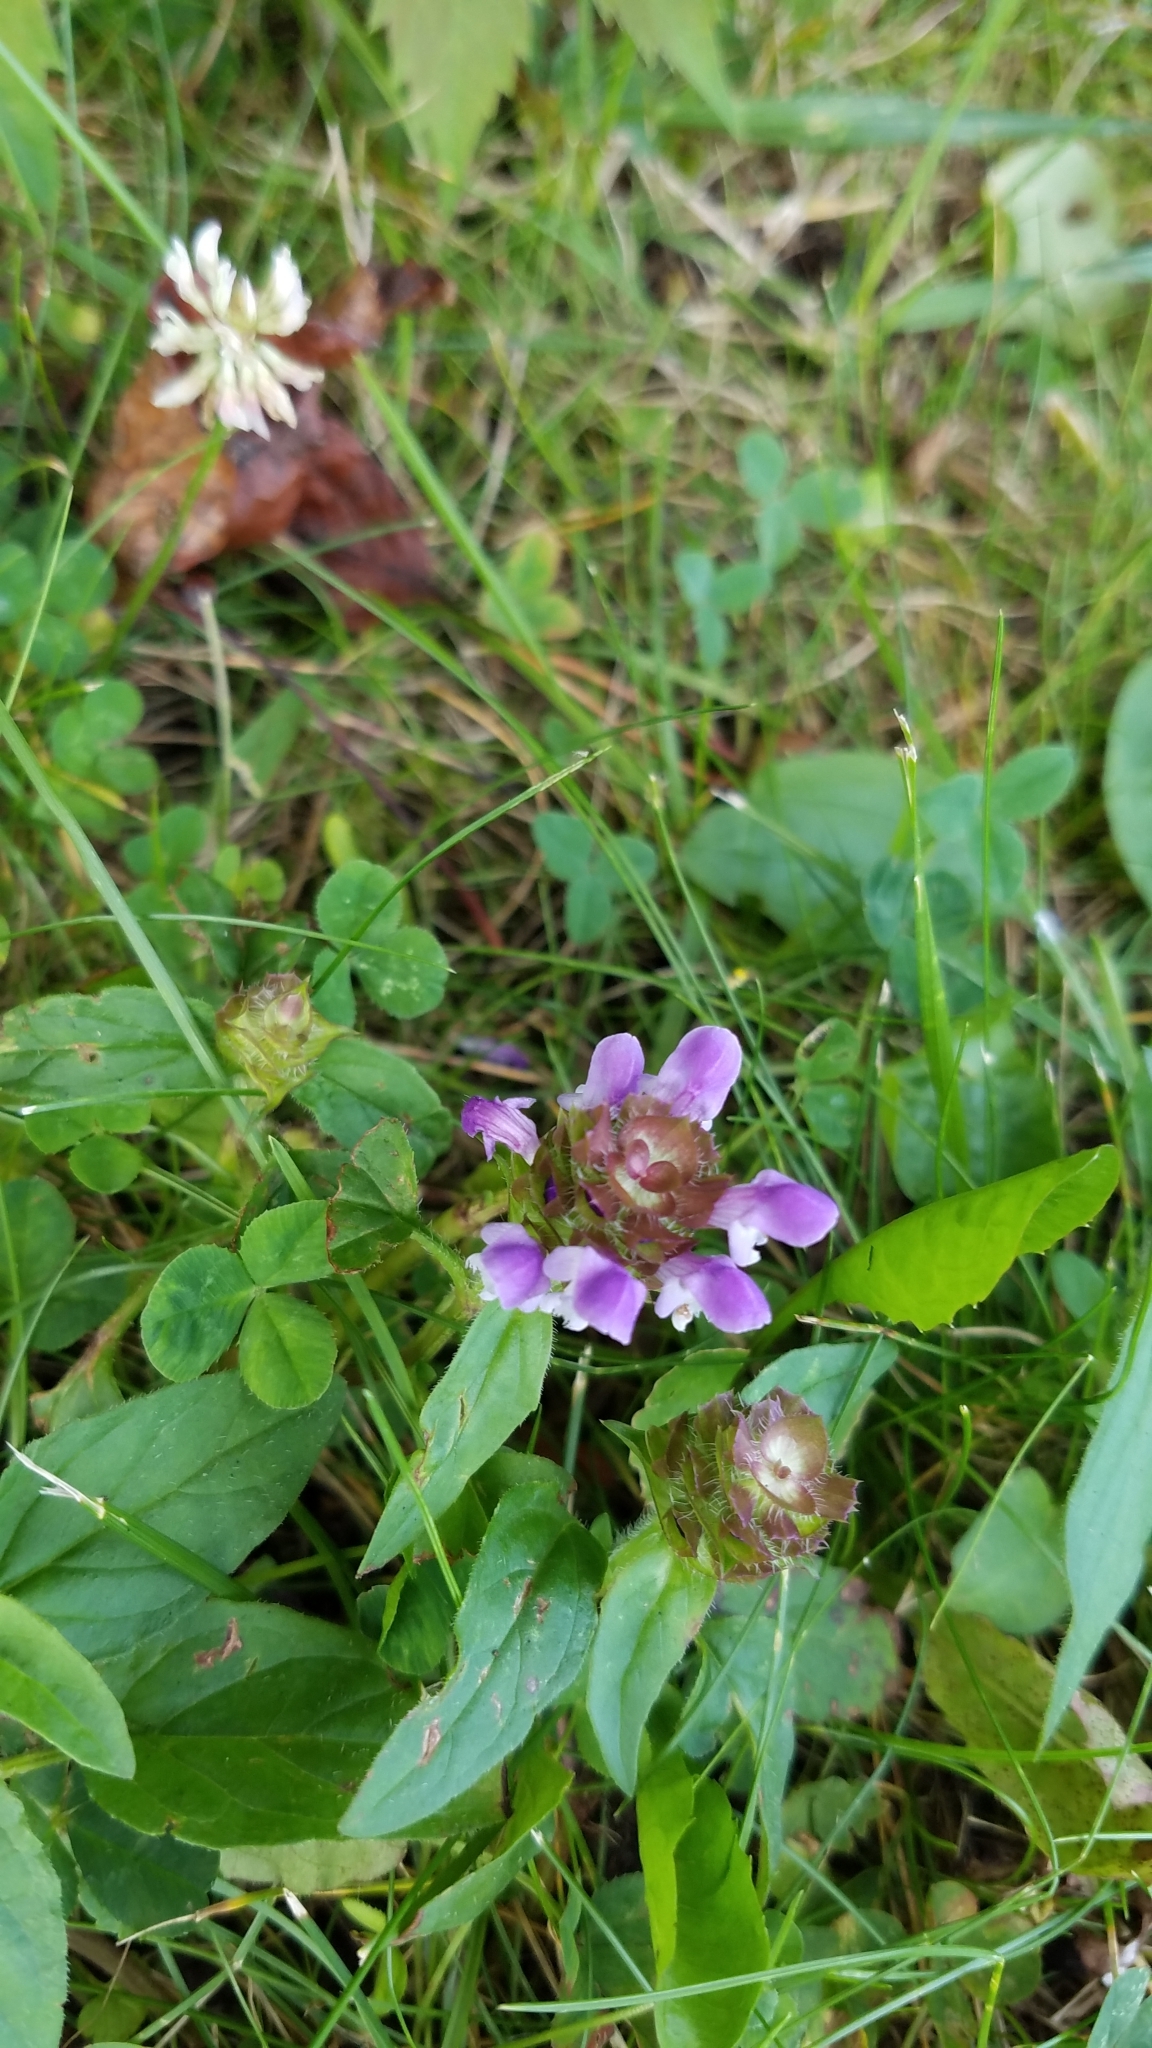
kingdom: Plantae
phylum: Tracheophyta
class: Magnoliopsida
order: Lamiales
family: Lamiaceae
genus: Prunella
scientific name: Prunella vulgaris
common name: Heal-all
